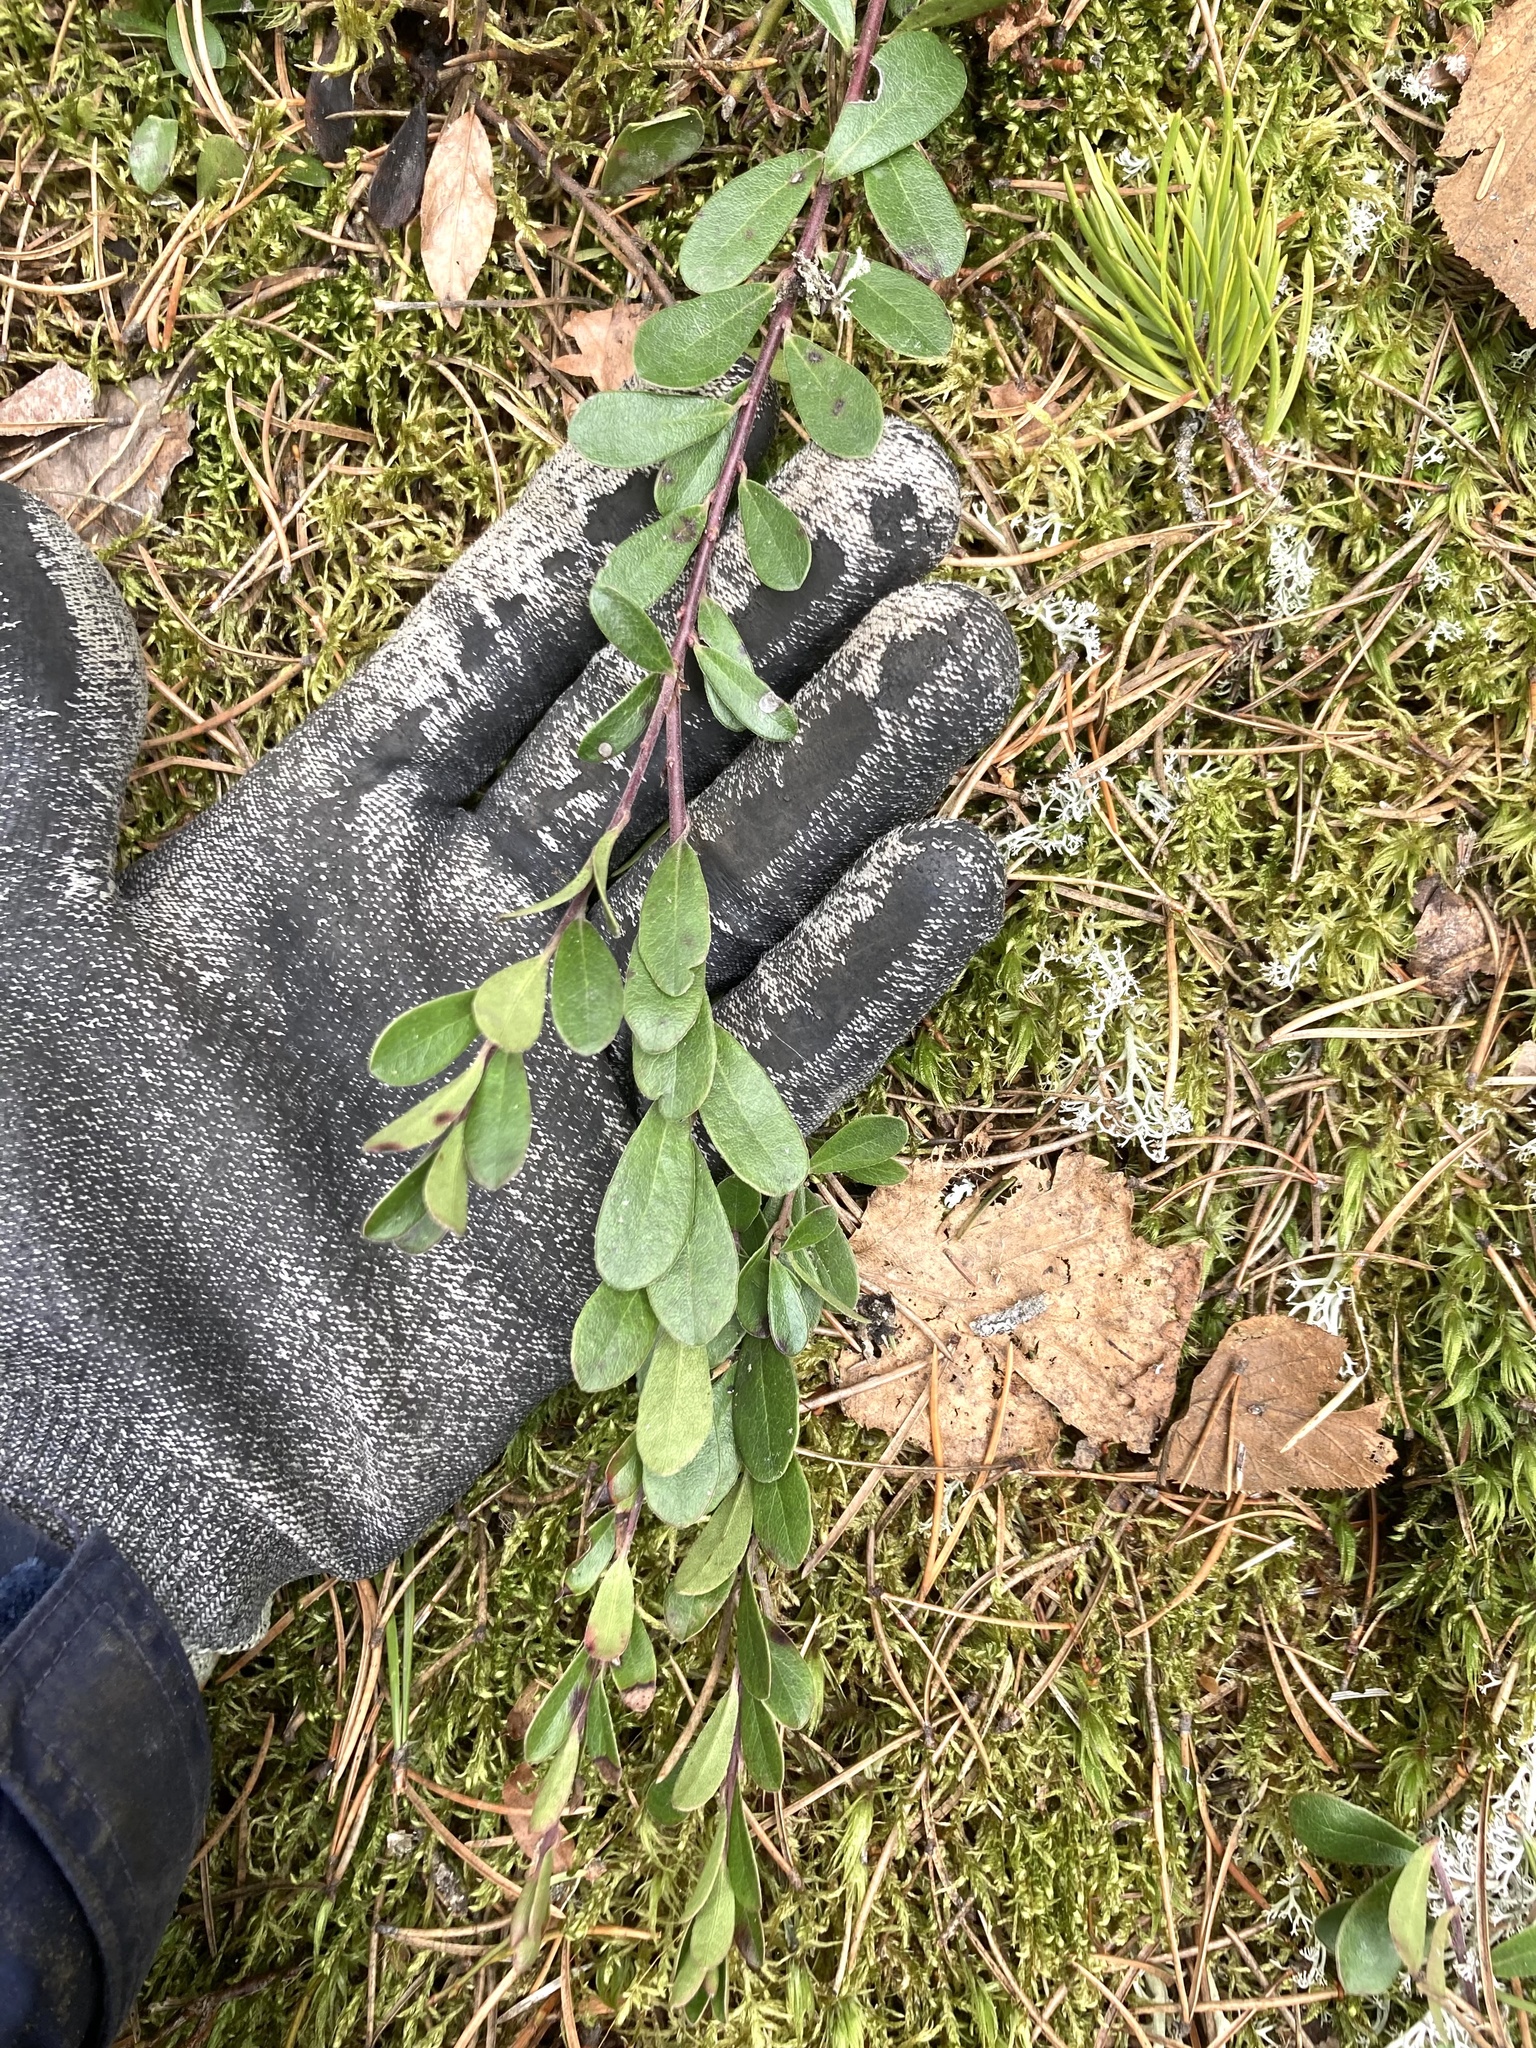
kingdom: Plantae
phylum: Tracheophyta
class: Magnoliopsida
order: Ericales
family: Ericaceae
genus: Arctostaphylos
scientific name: Arctostaphylos uva-ursi
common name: Bearberry
